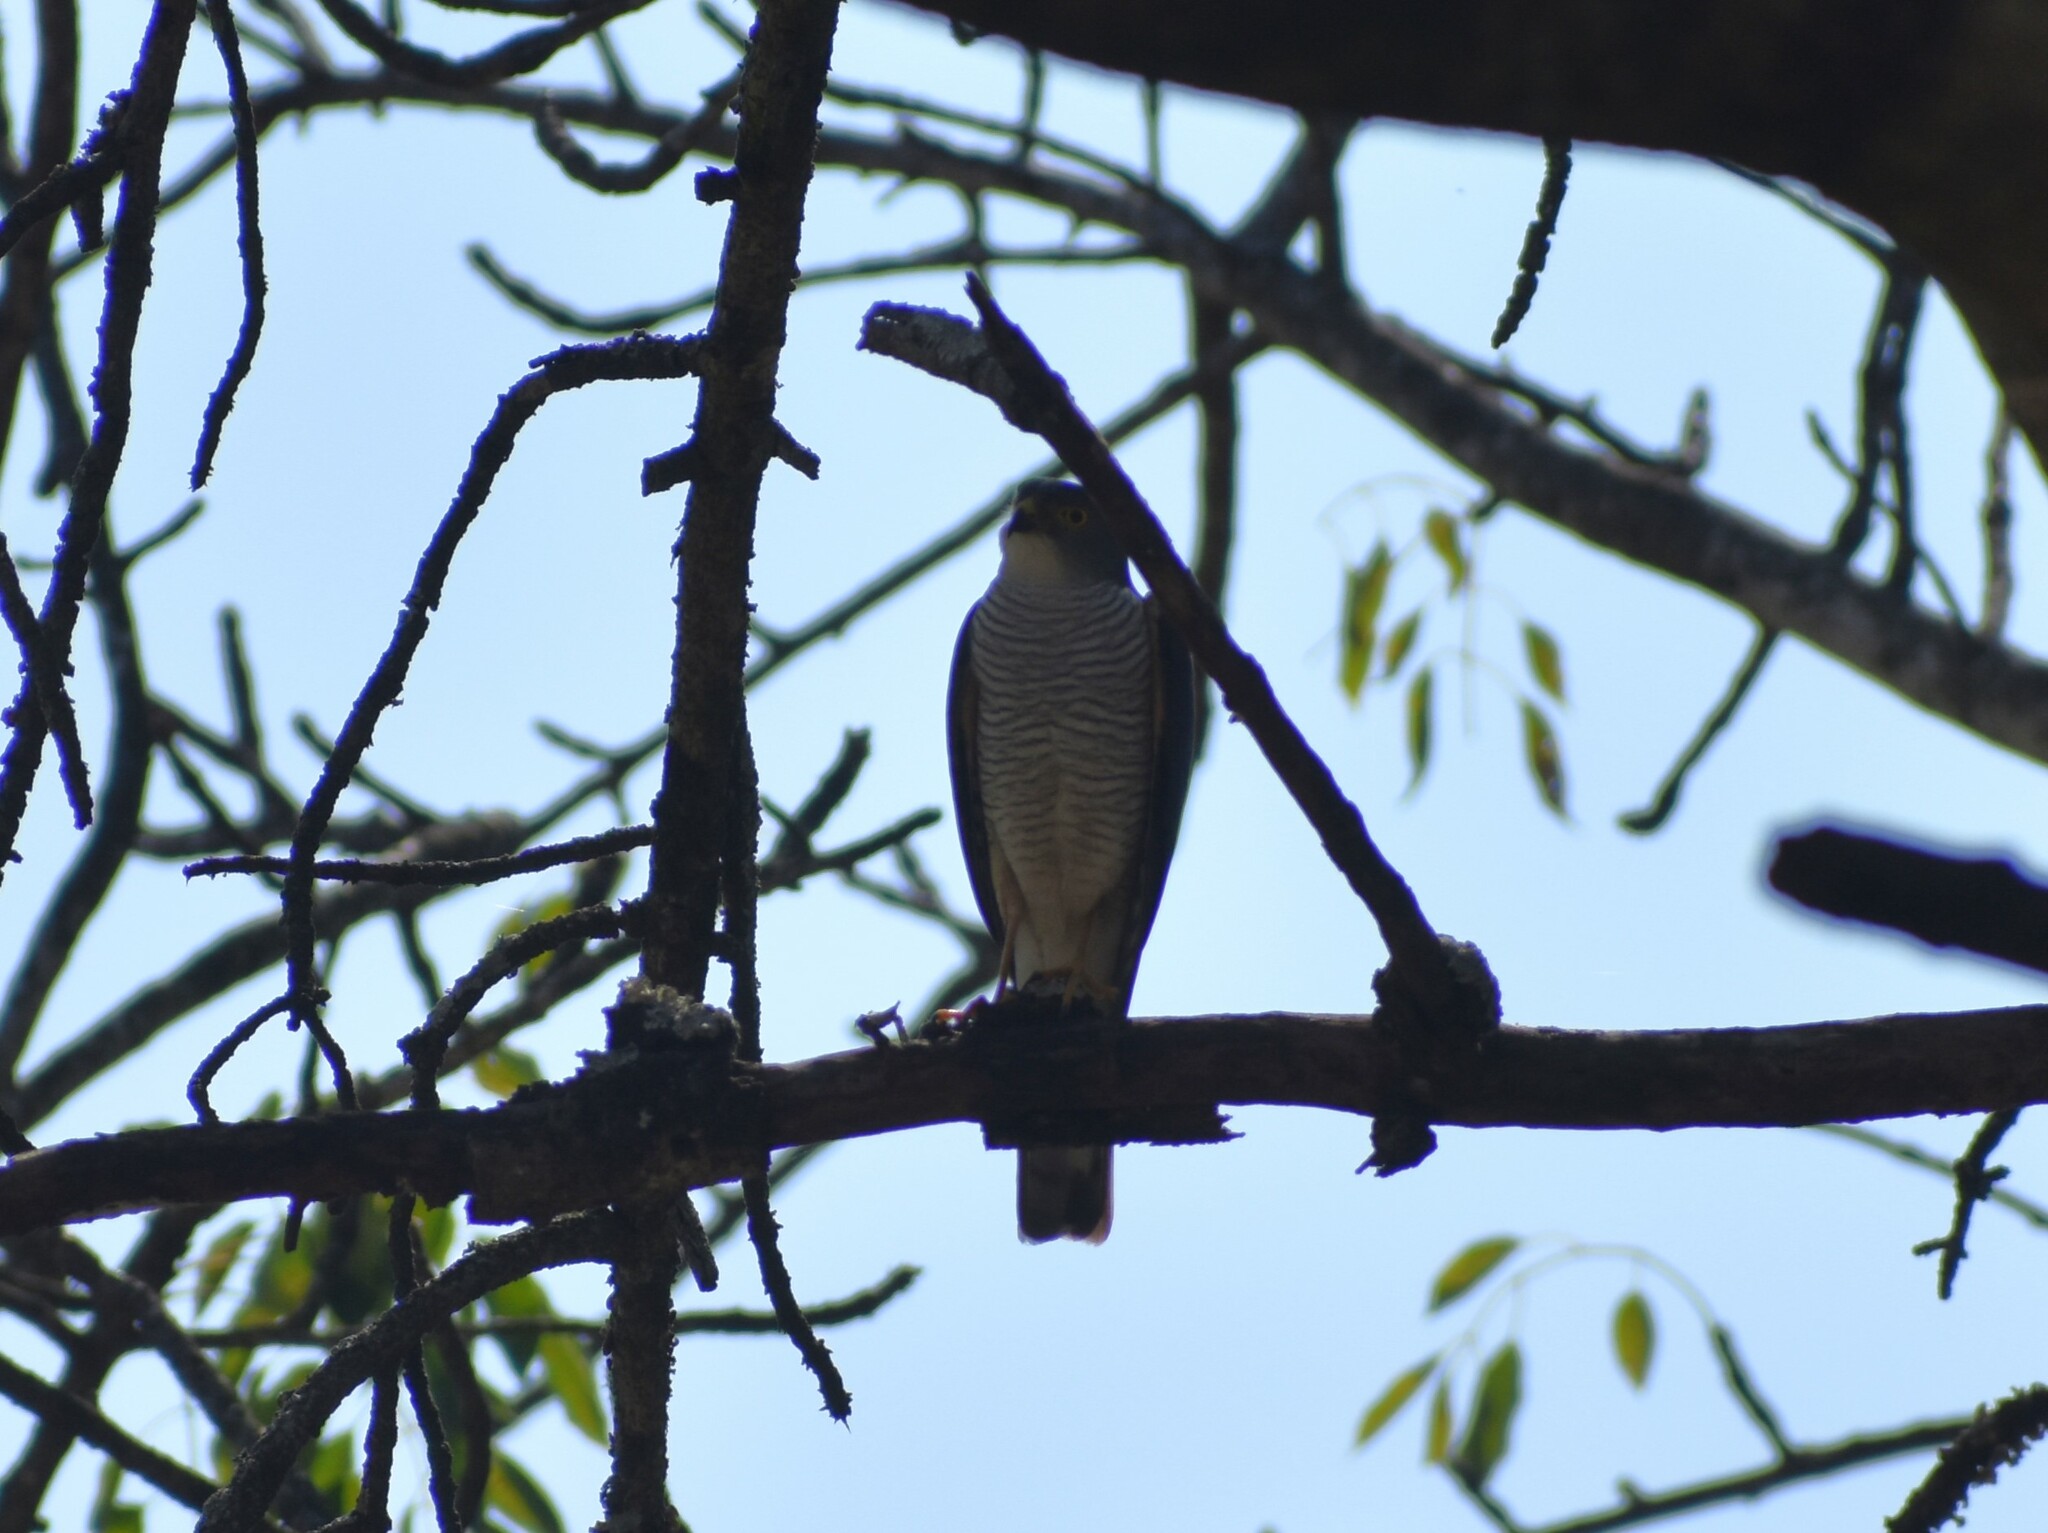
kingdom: Animalia
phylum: Chordata
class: Aves
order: Accipitriformes
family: Accipitridae
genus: Accipiter
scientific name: Accipiter tachiro
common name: African goshawk
